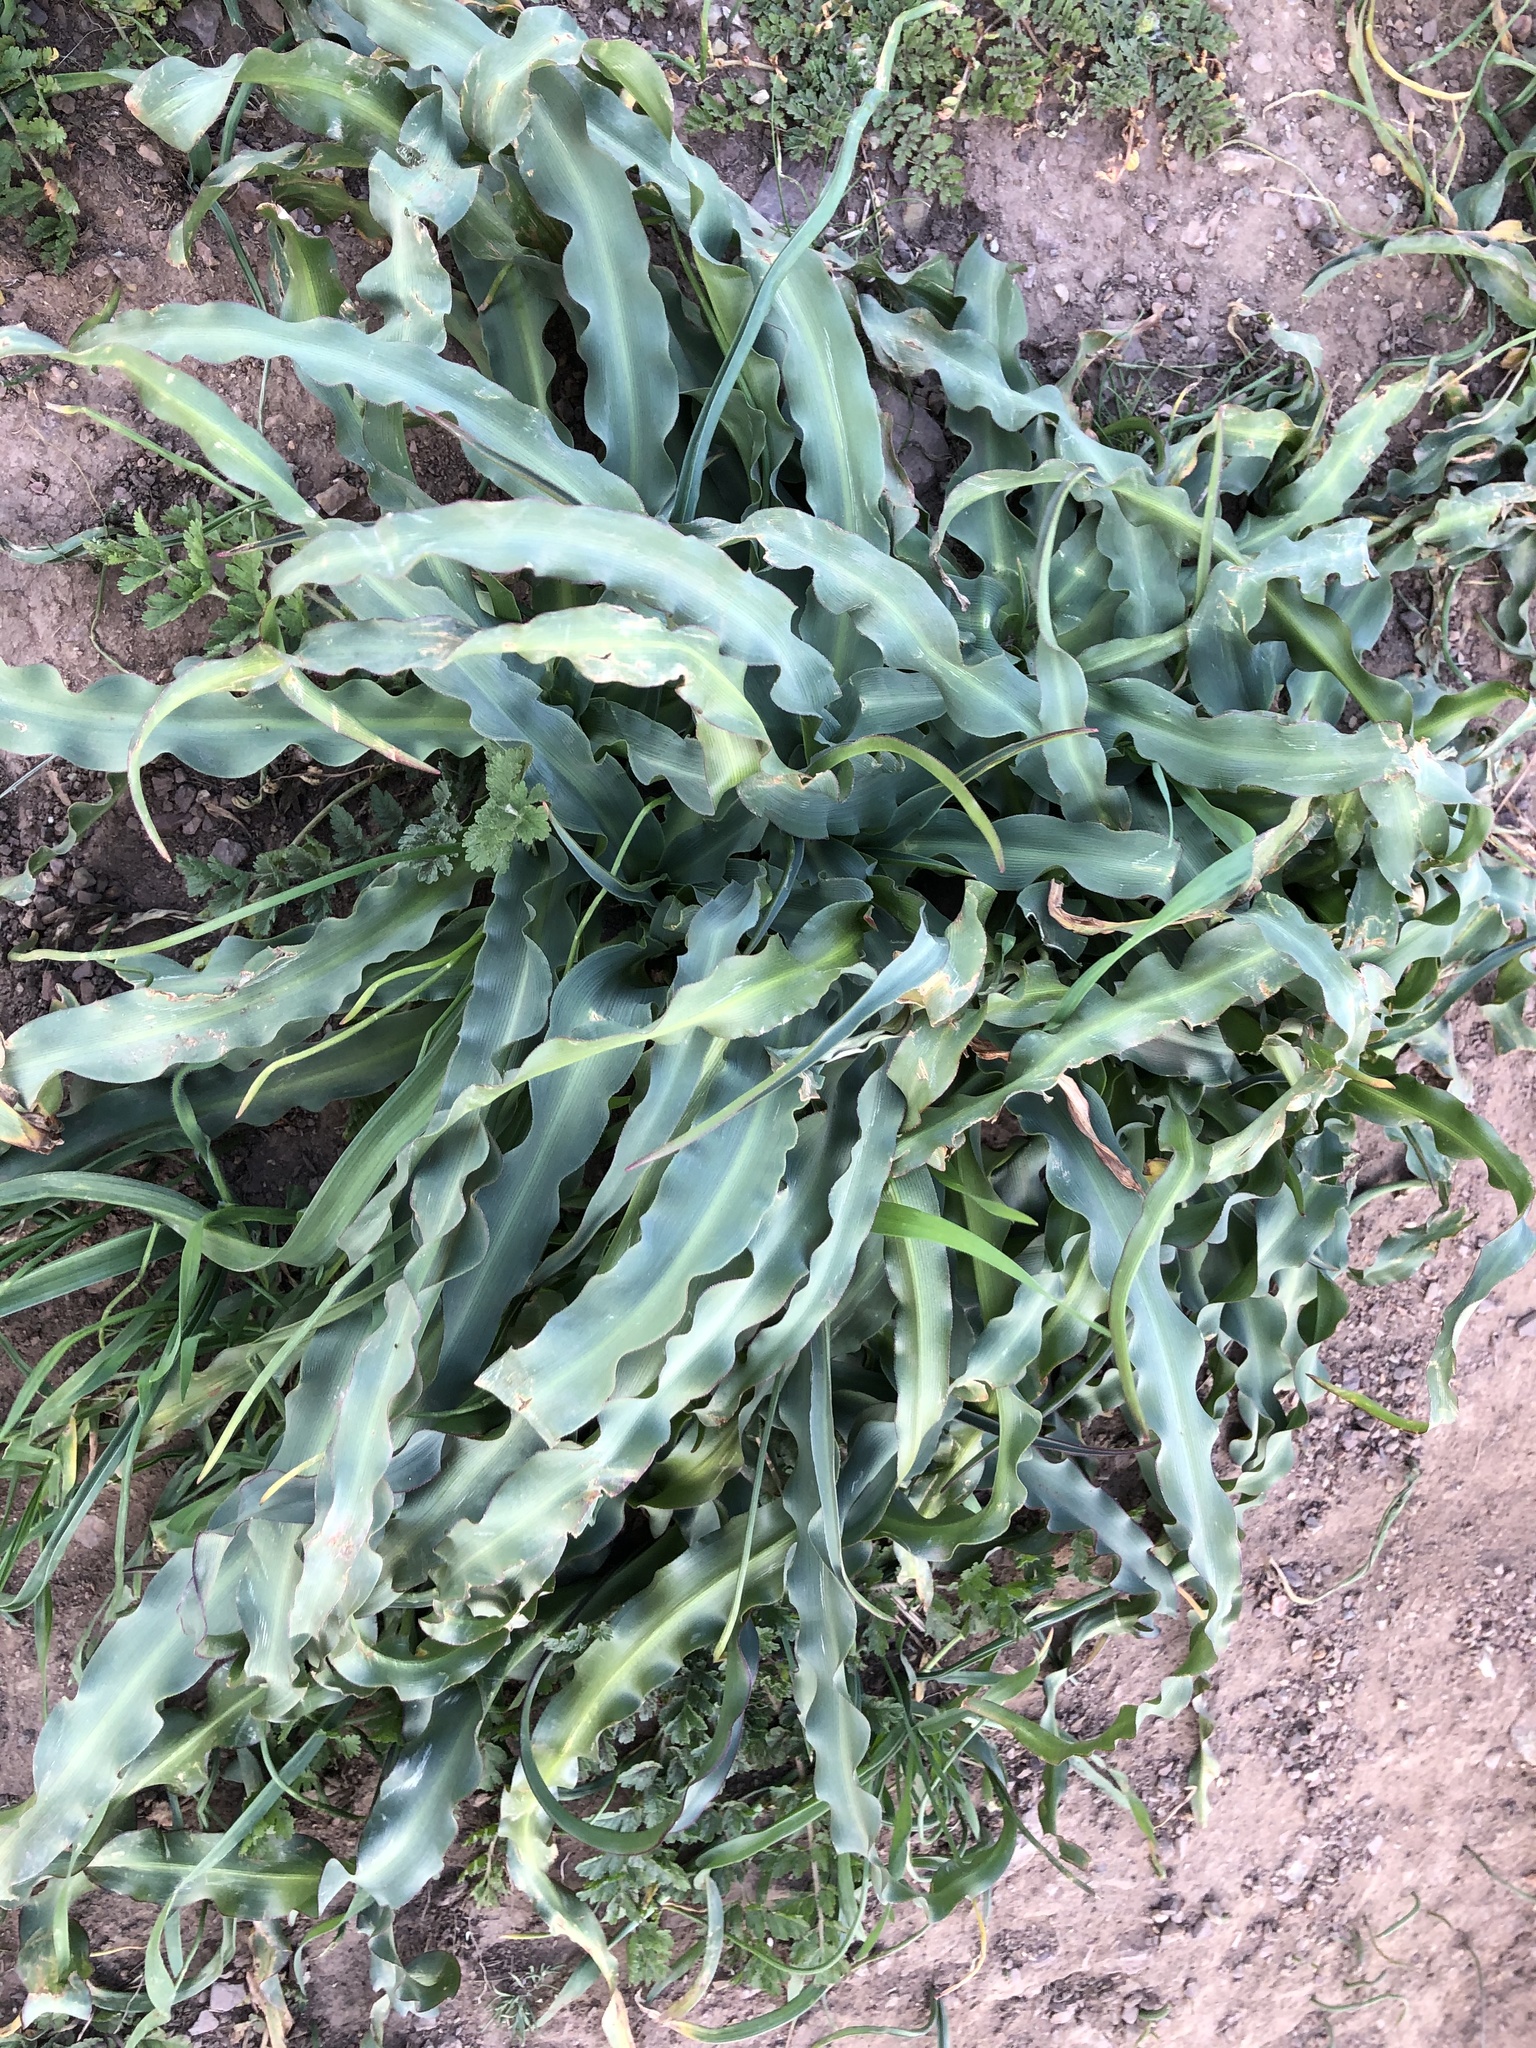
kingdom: Plantae
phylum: Tracheophyta
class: Liliopsida
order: Asparagales
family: Asparagaceae
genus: Chlorogalum
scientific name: Chlorogalum pomeridianum
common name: Amole
